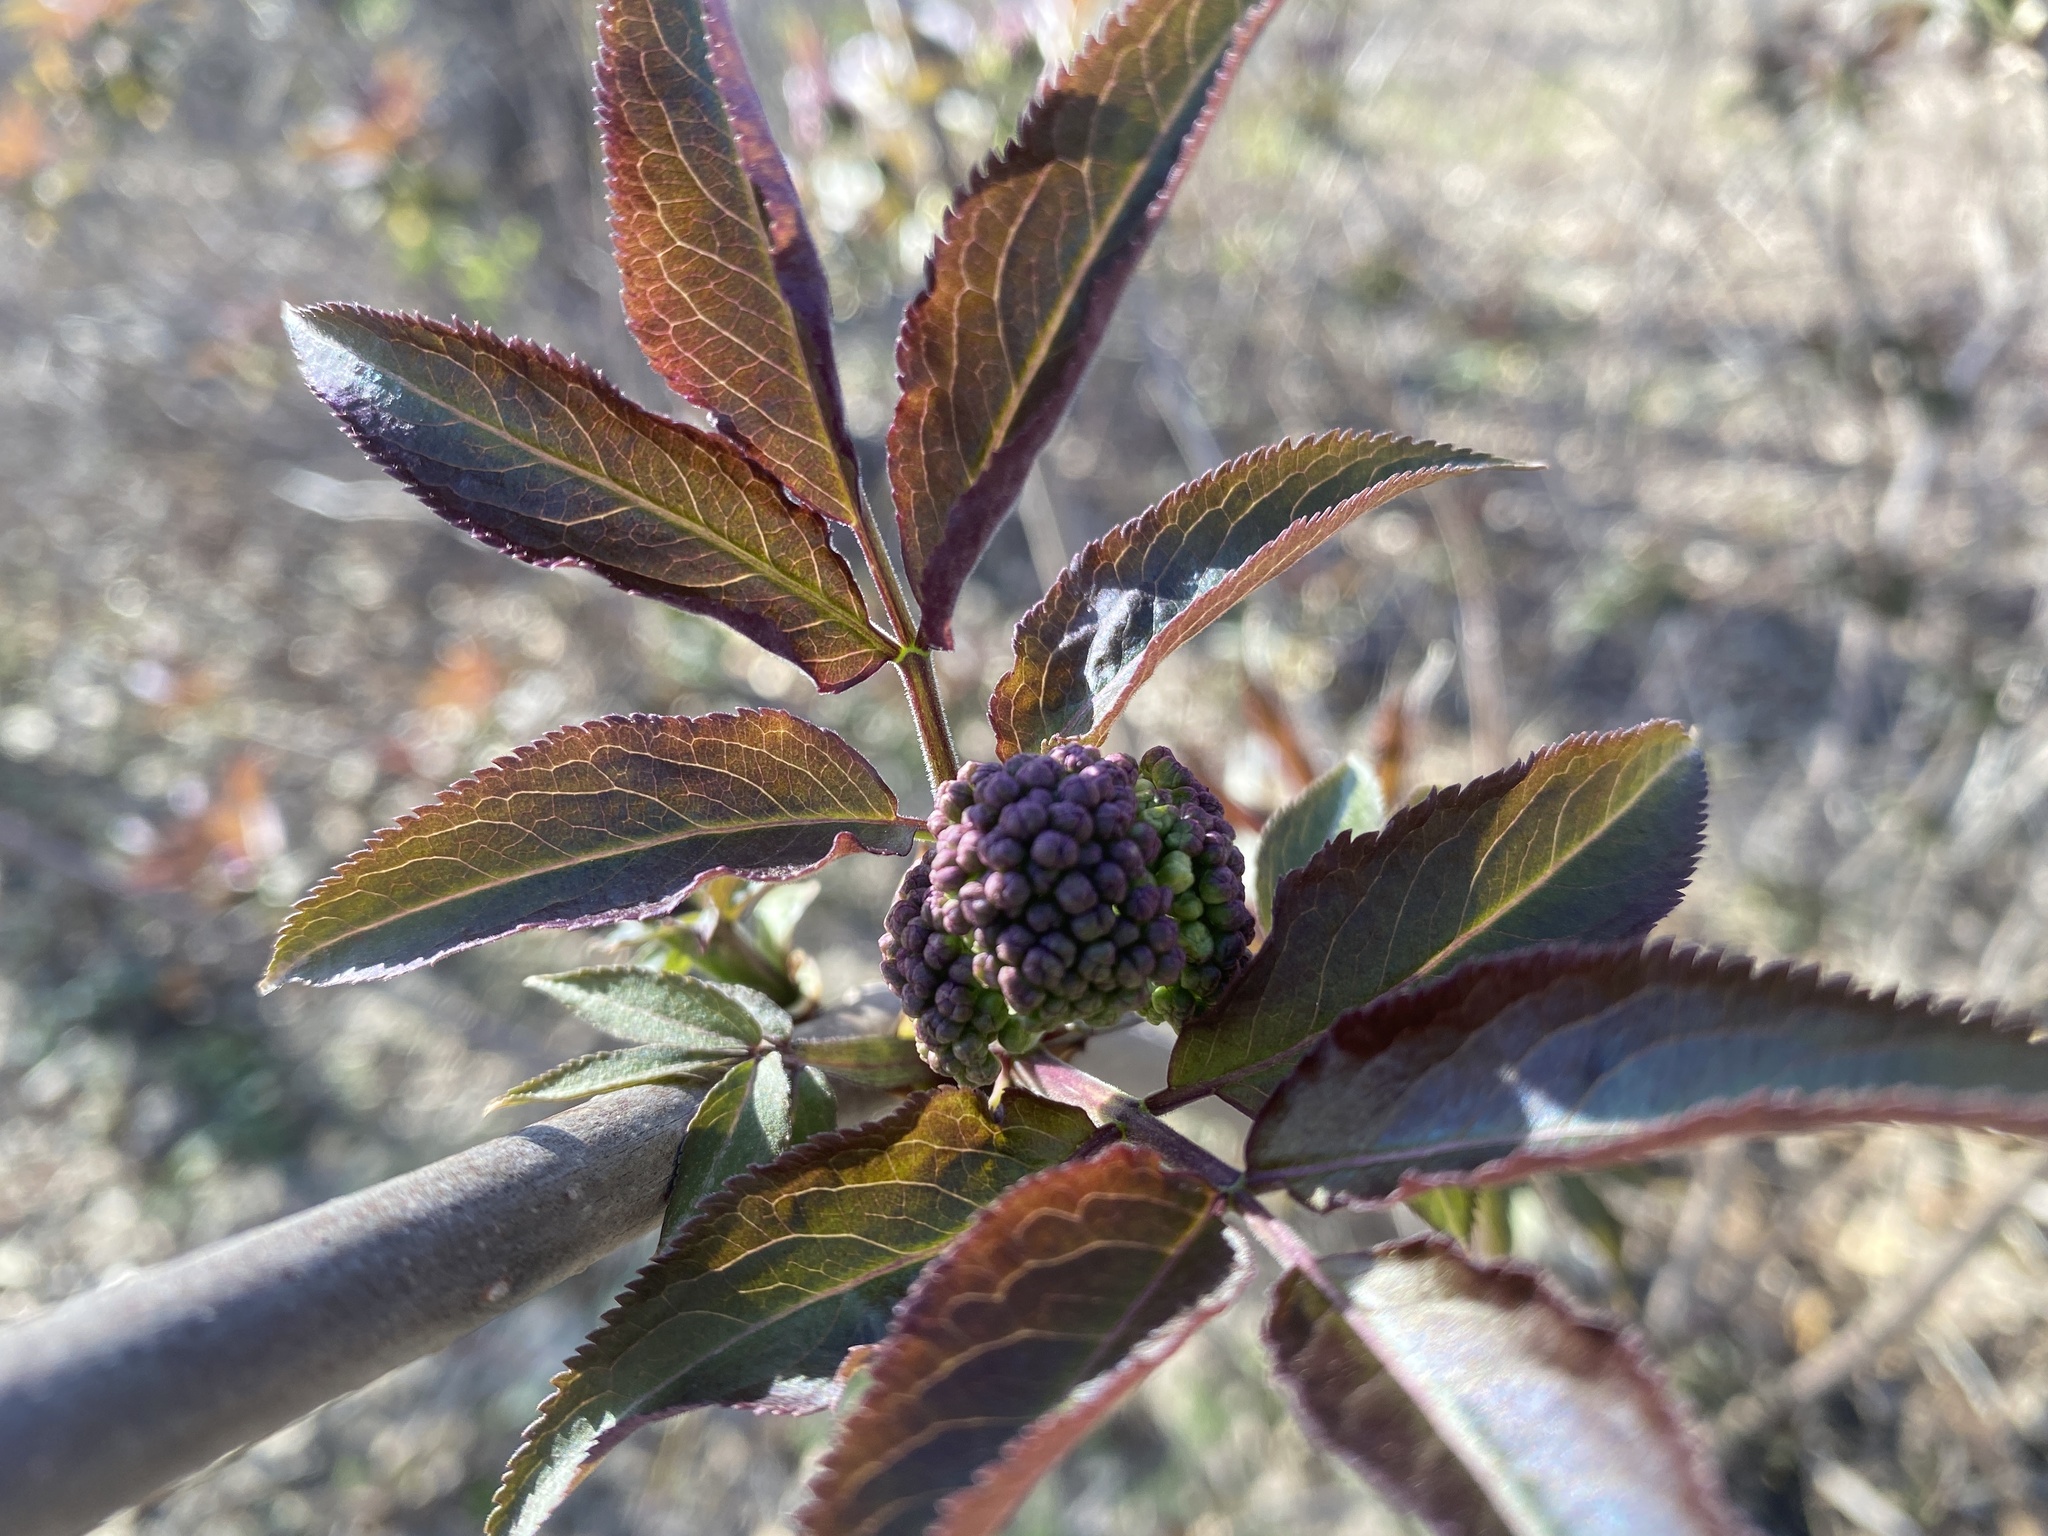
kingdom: Plantae
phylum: Tracheophyta
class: Magnoliopsida
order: Dipsacales
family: Viburnaceae
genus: Sambucus
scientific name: Sambucus racemosa
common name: Red-berried elder
